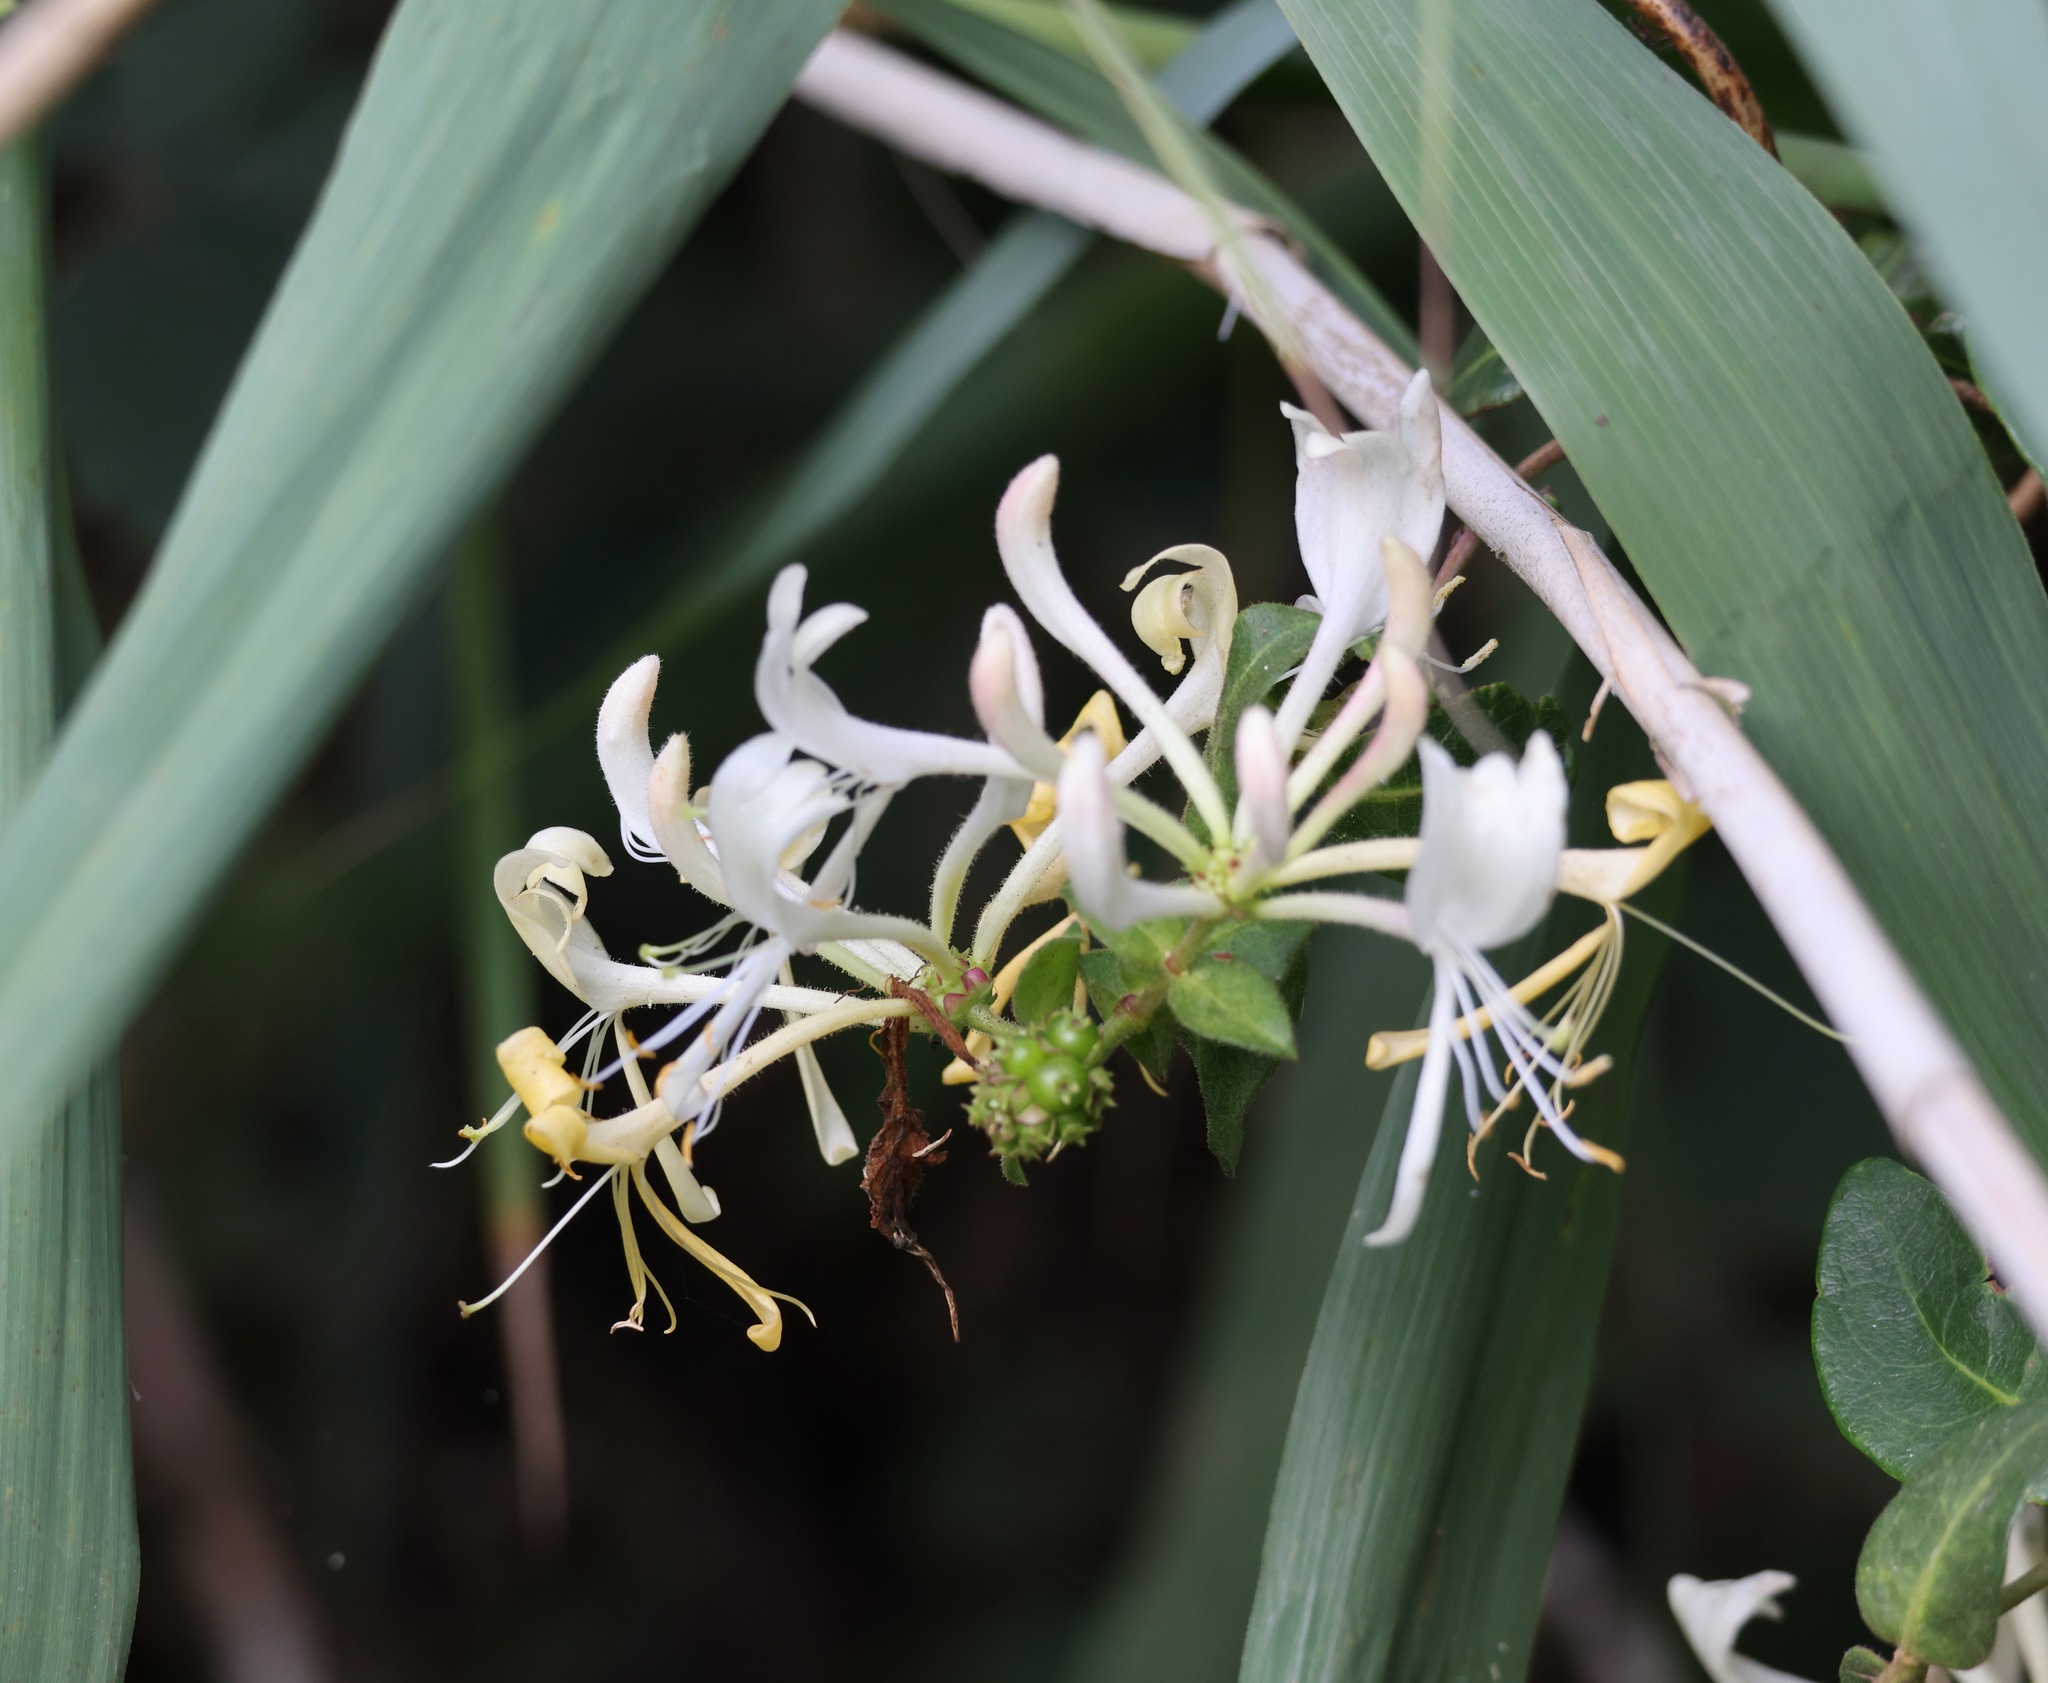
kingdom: Plantae
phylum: Tracheophyta
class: Magnoliopsida
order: Dipsacales
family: Caprifoliaceae
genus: Lonicera
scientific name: Lonicera periclymenum
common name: European honeysuckle
